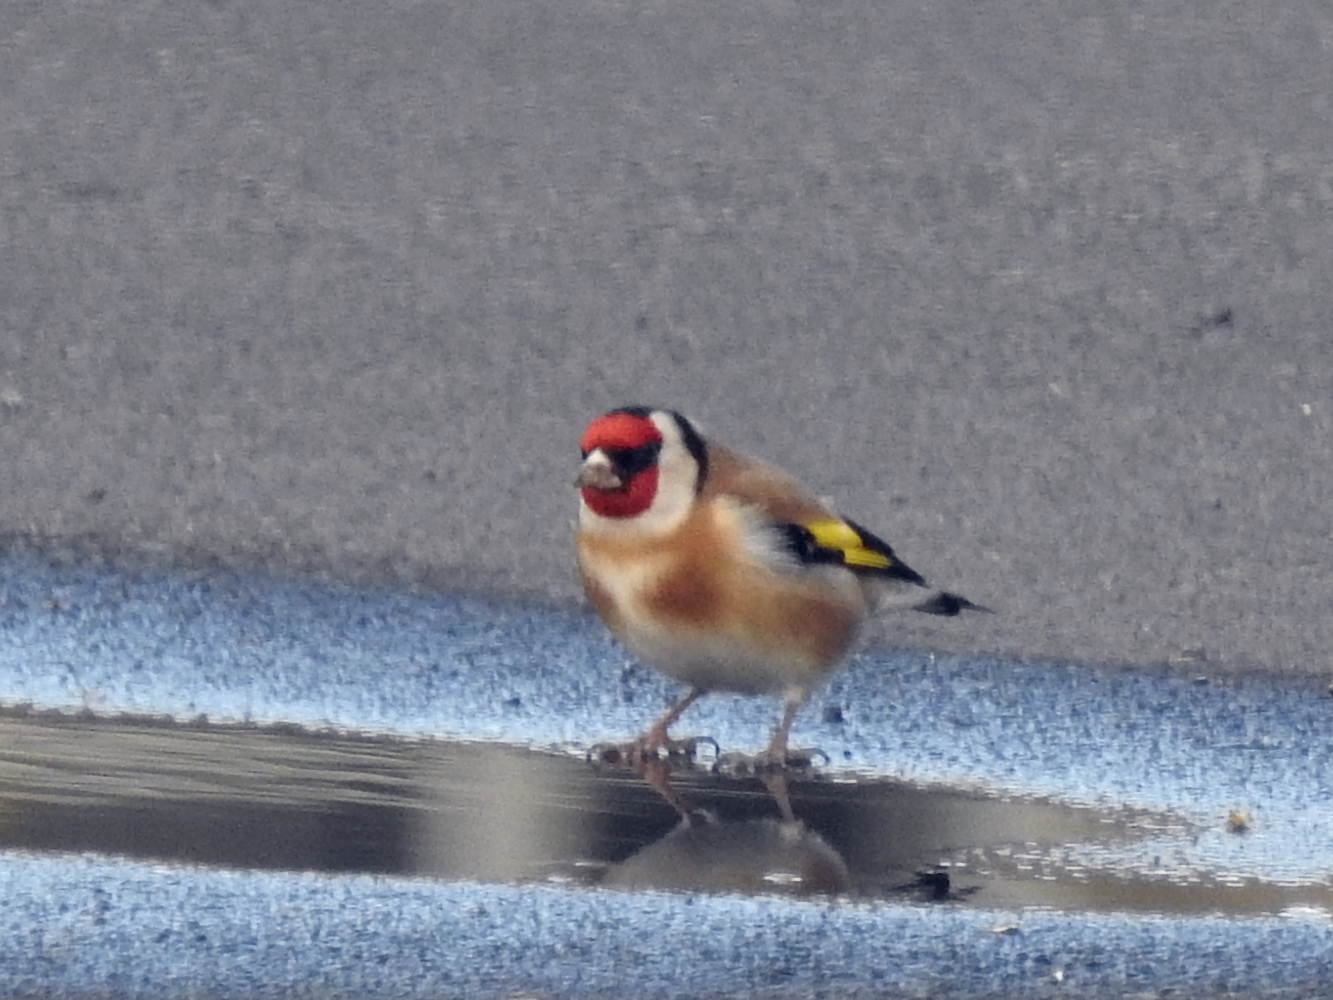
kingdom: Animalia
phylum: Chordata
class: Aves
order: Passeriformes
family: Fringillidae
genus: Carduelis
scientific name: Carduelis carduelis
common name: European goldfinch
